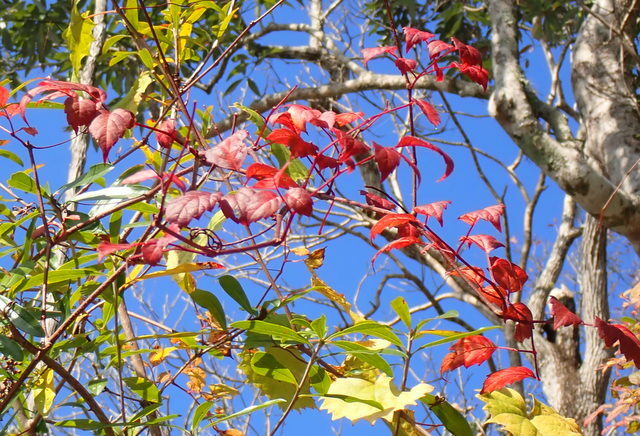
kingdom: Plantae
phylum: Tracheophyta
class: Magnoliopsida
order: Vitales
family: Vitaceae
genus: Nekemias
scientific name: Nekemias arborea
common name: Peppervine
